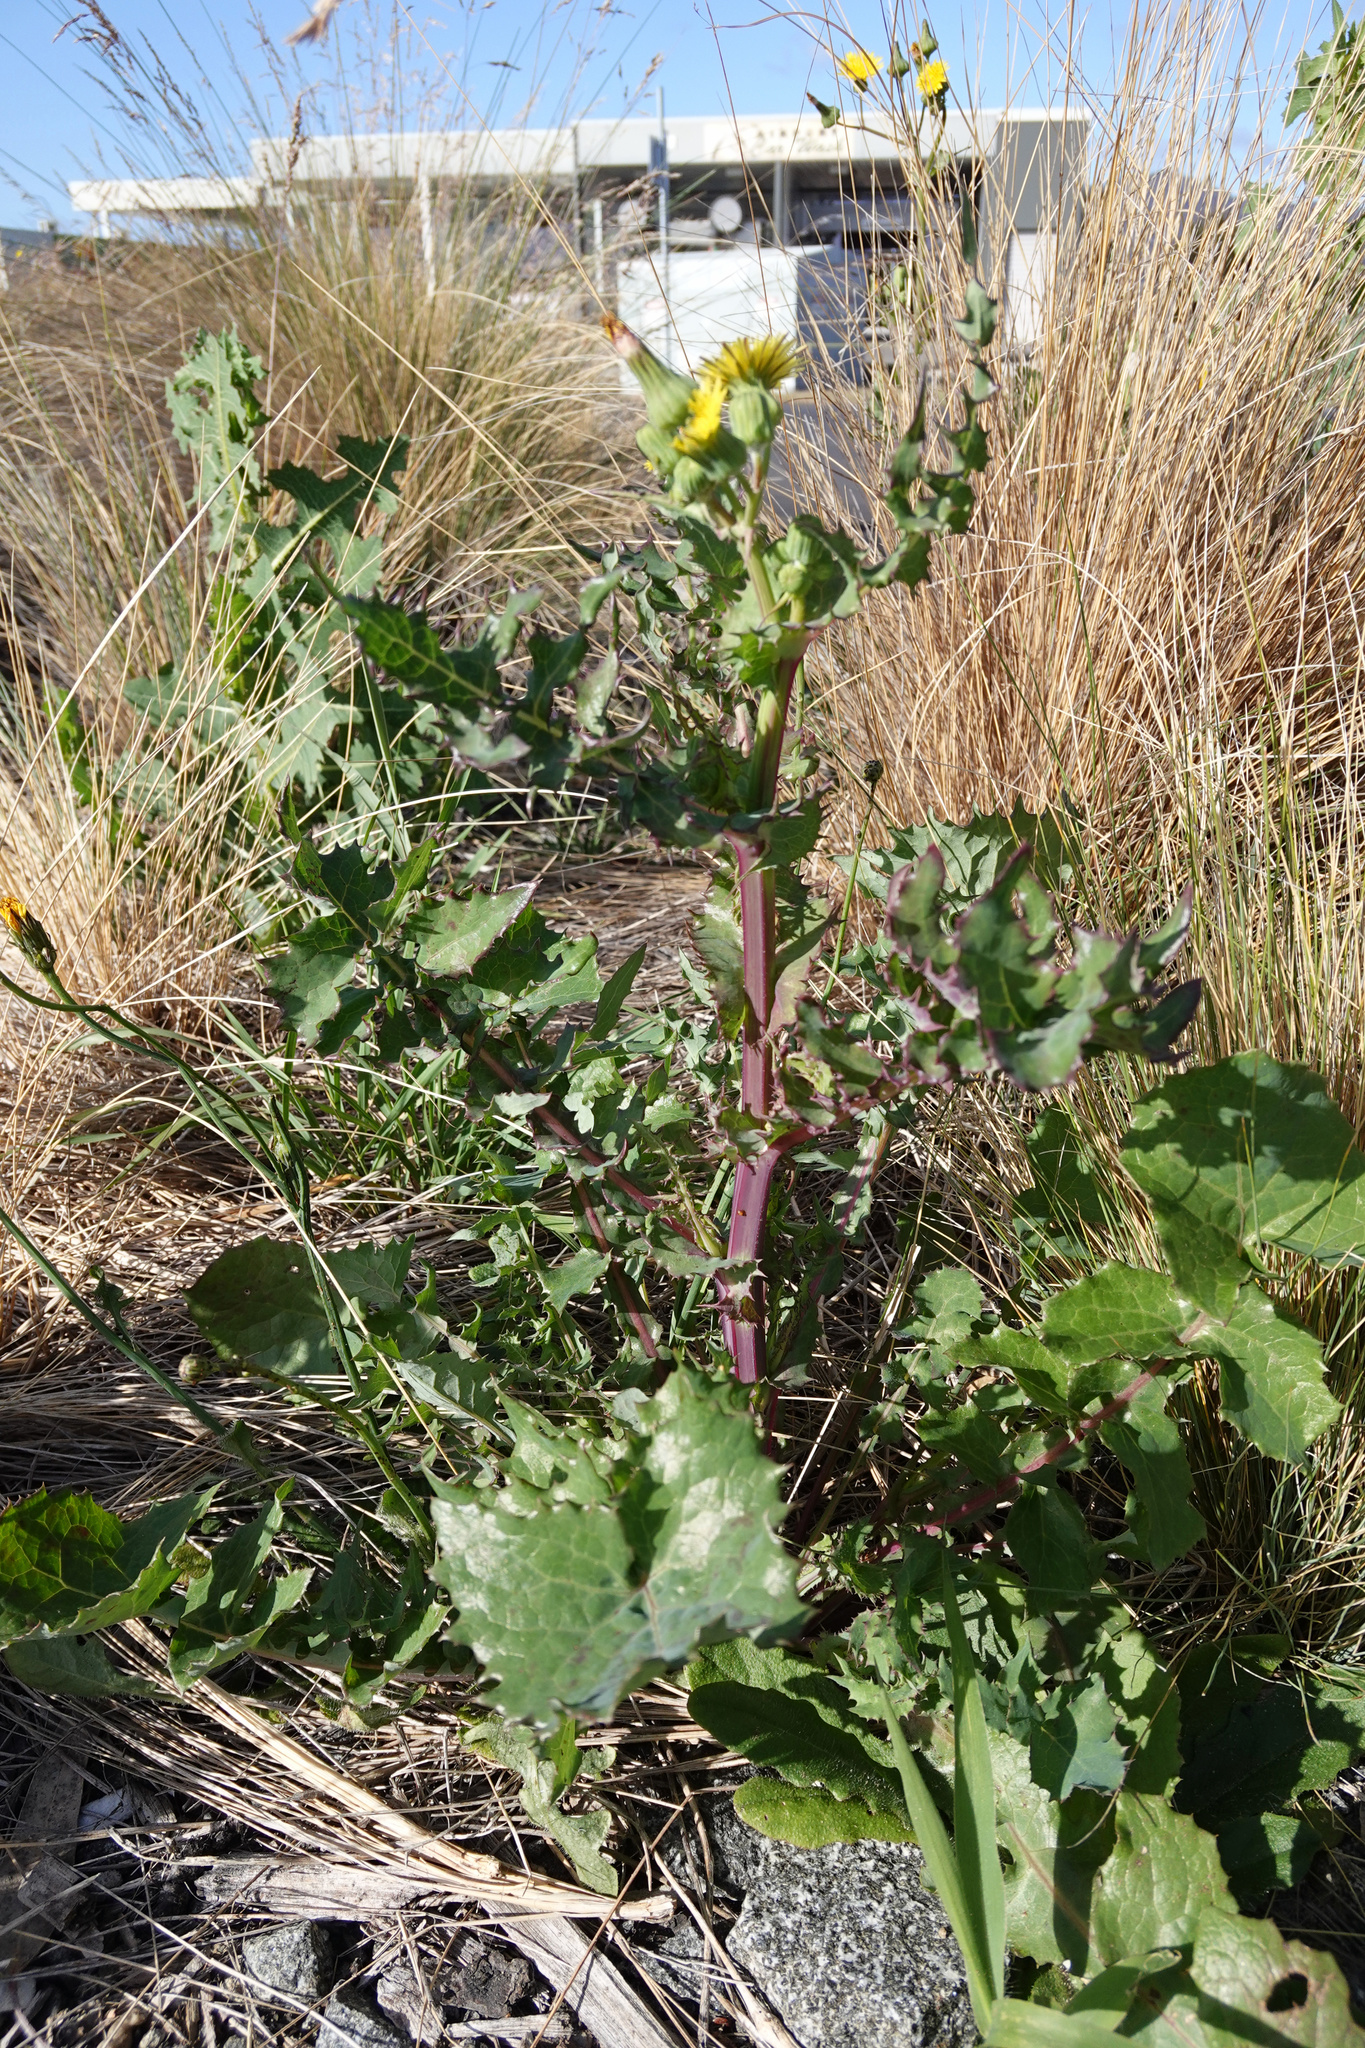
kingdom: Plantae
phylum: Tracheophyta
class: Magnoliopsida
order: Asterales
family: Asteraceae
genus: Sonchus
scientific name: Sonchus asper
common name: Prickly sow-thistle
